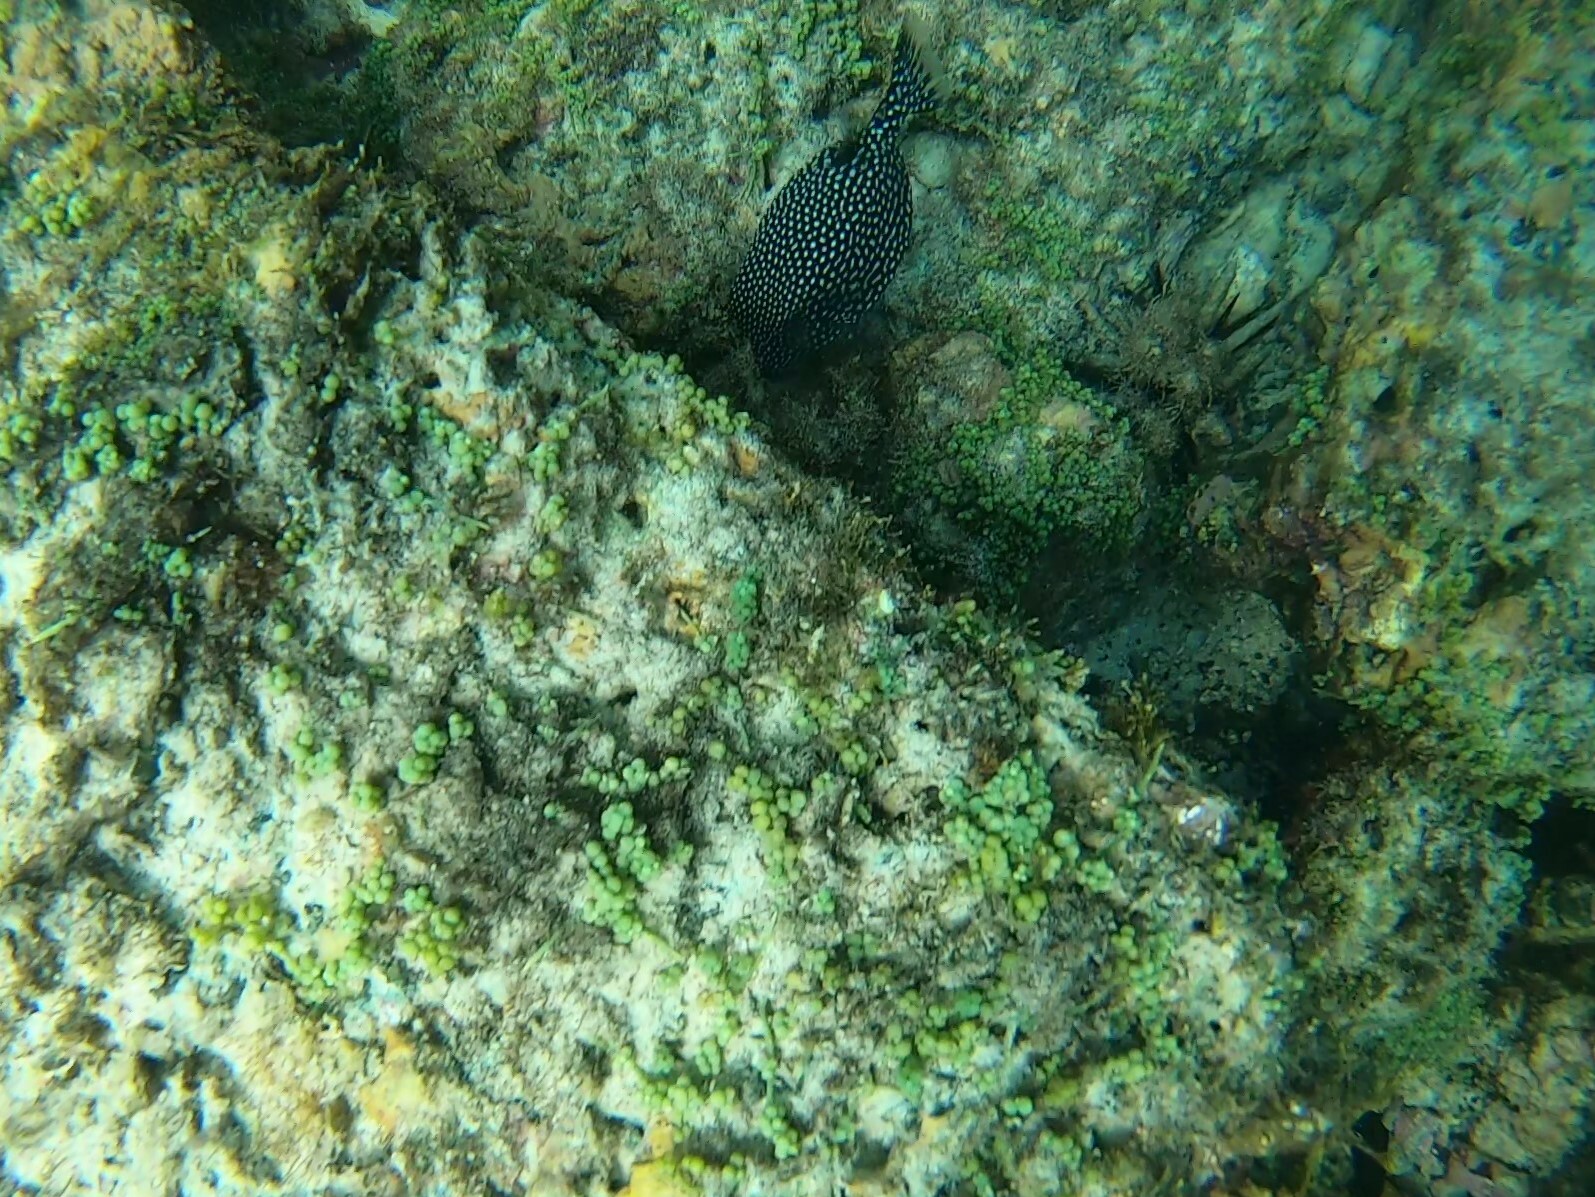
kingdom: Animalia
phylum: Chordata
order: Tetraodontiformes
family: Ostraciidae
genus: Ostracion
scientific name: Ostracion meleagris
